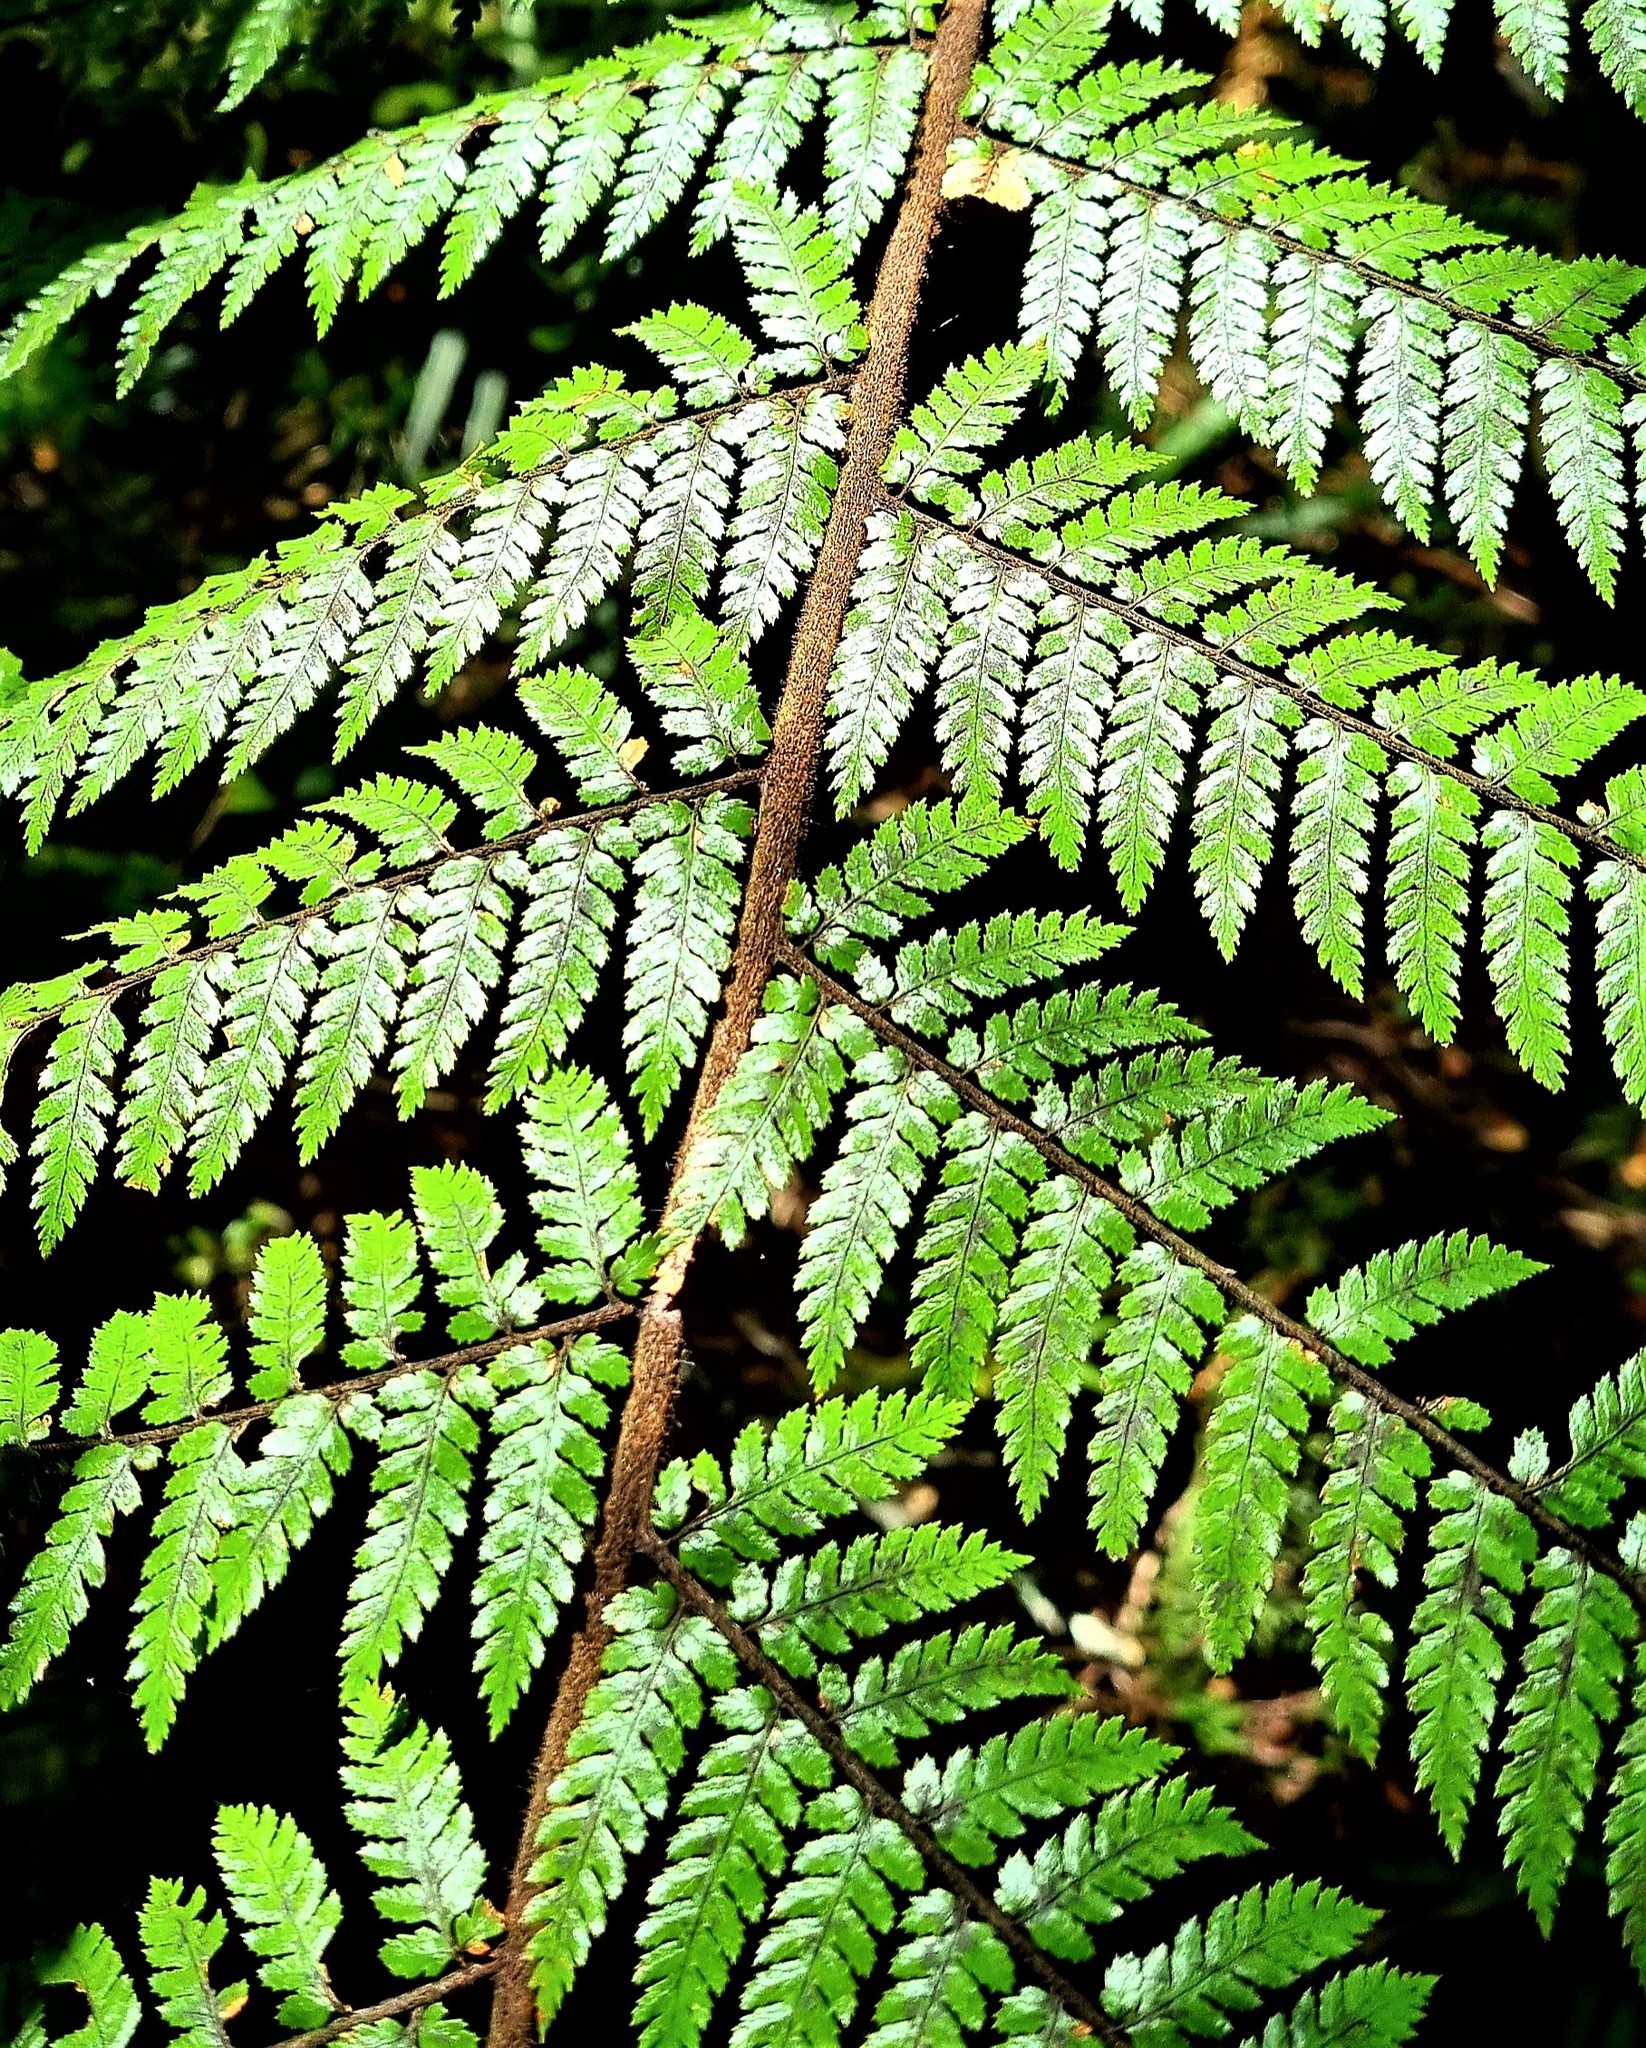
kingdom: Plantae
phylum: Tracheophyta
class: Polypodiopsida
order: Cyatheales
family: Dicksoniaceae
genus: Dicksonia
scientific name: Dicksonia squarrosa
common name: Hard treefern
